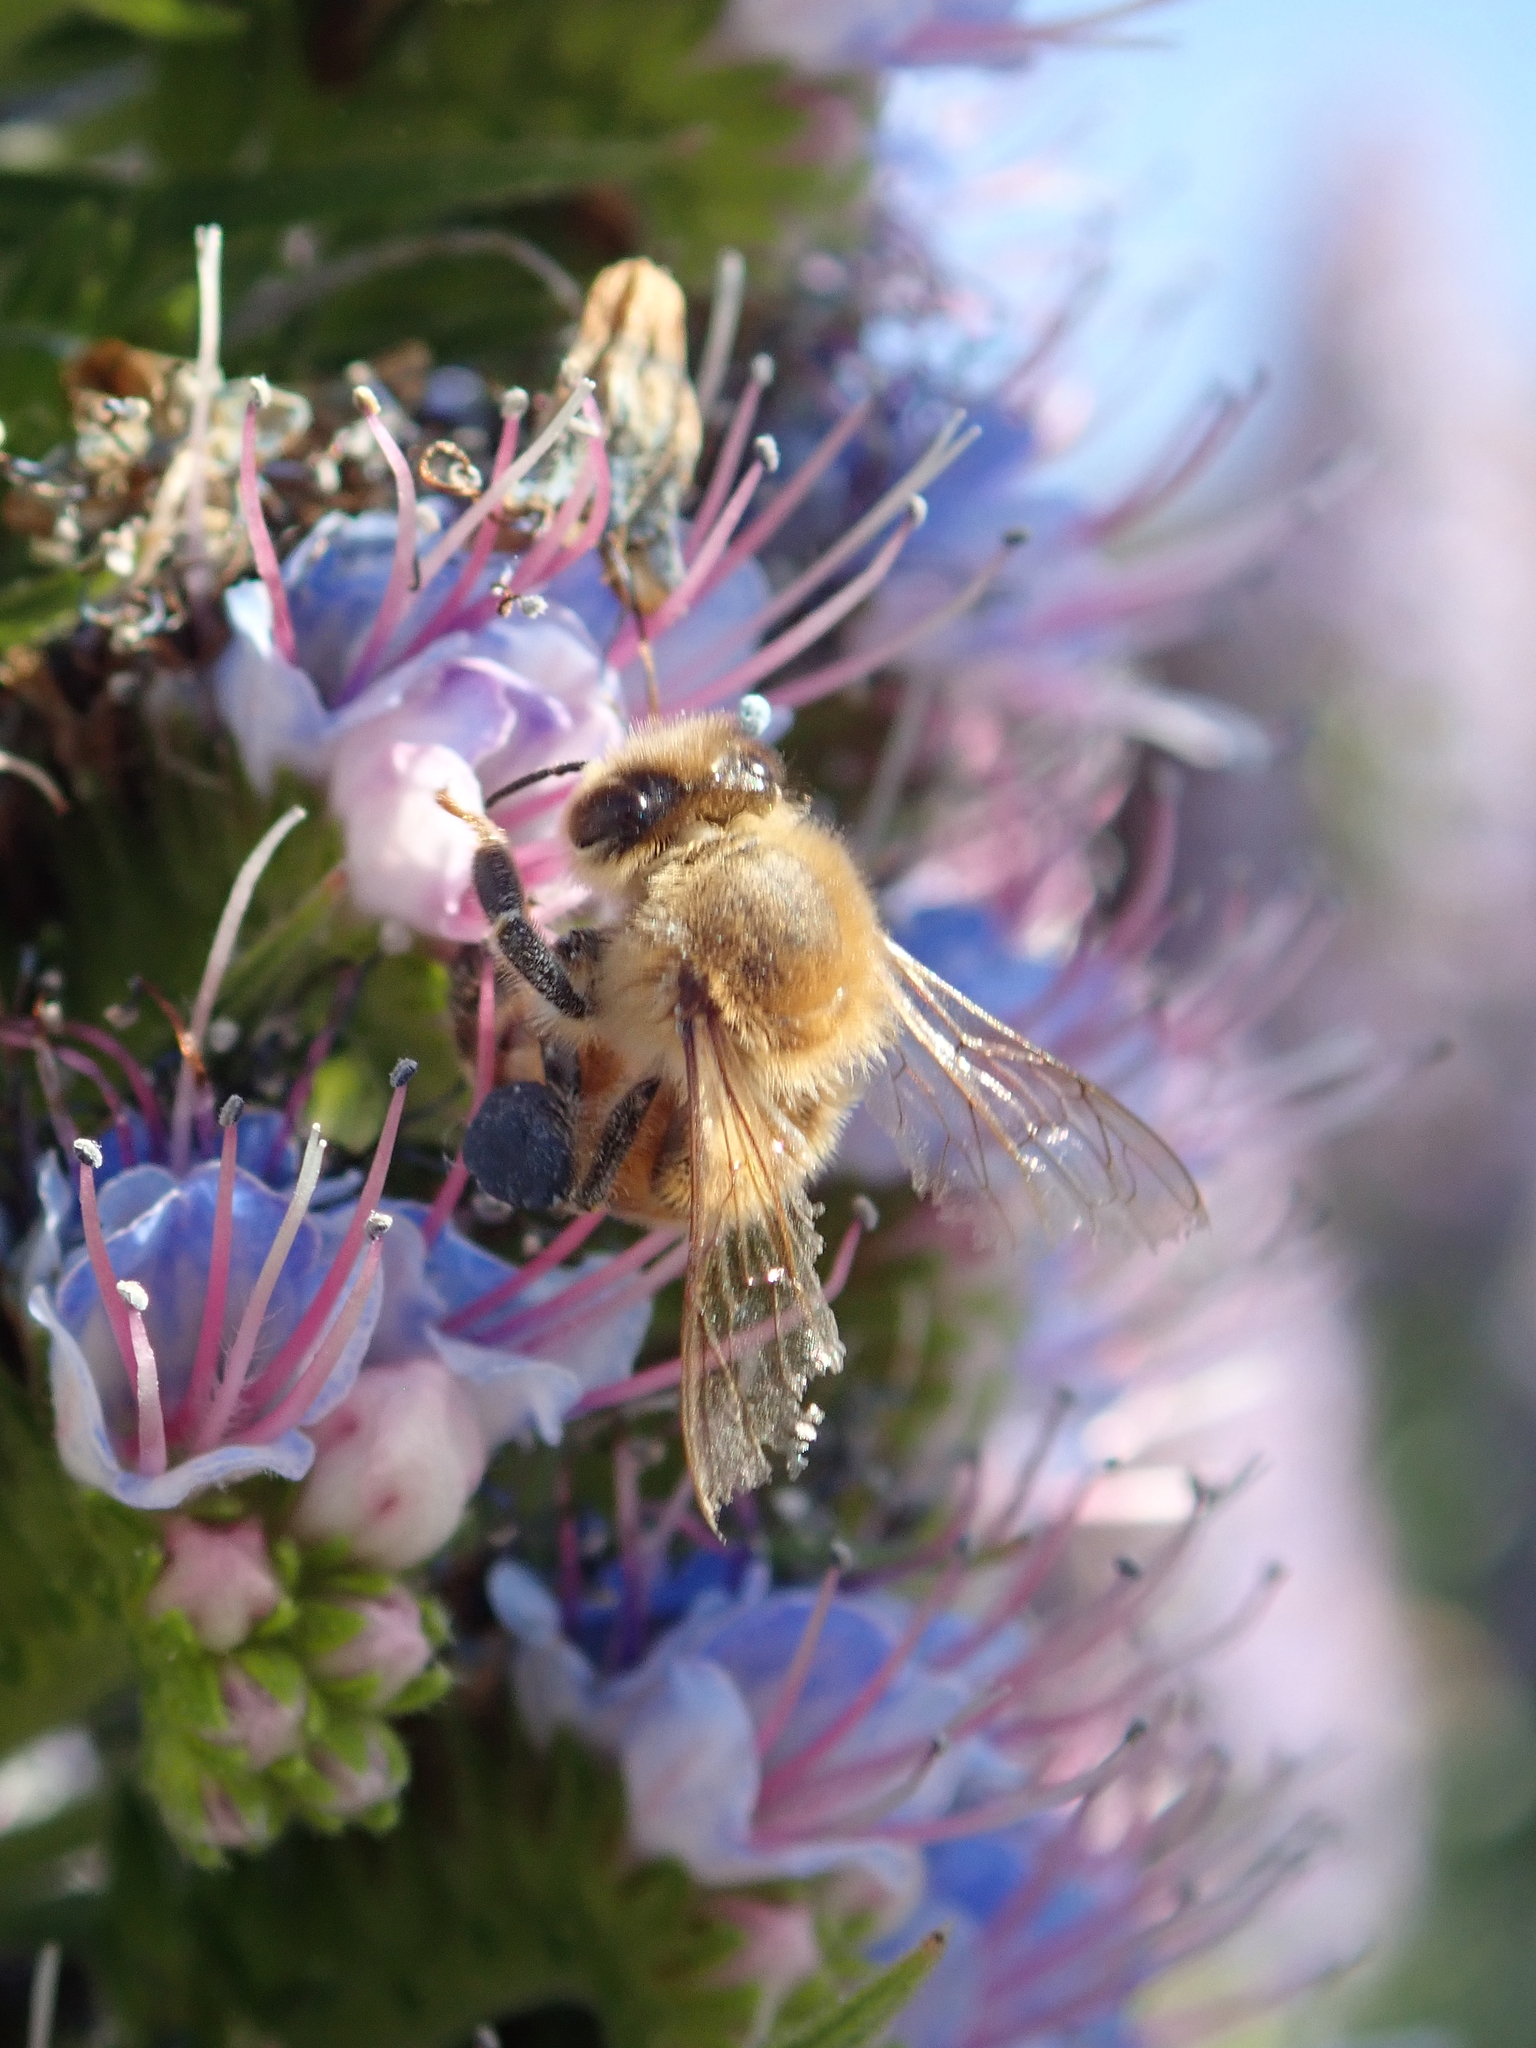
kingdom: Animalia
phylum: Arthropoda
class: Insecta
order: Hymenoptera
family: Apidae
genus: Apis
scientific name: Apis mellifera
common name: Honey bee
